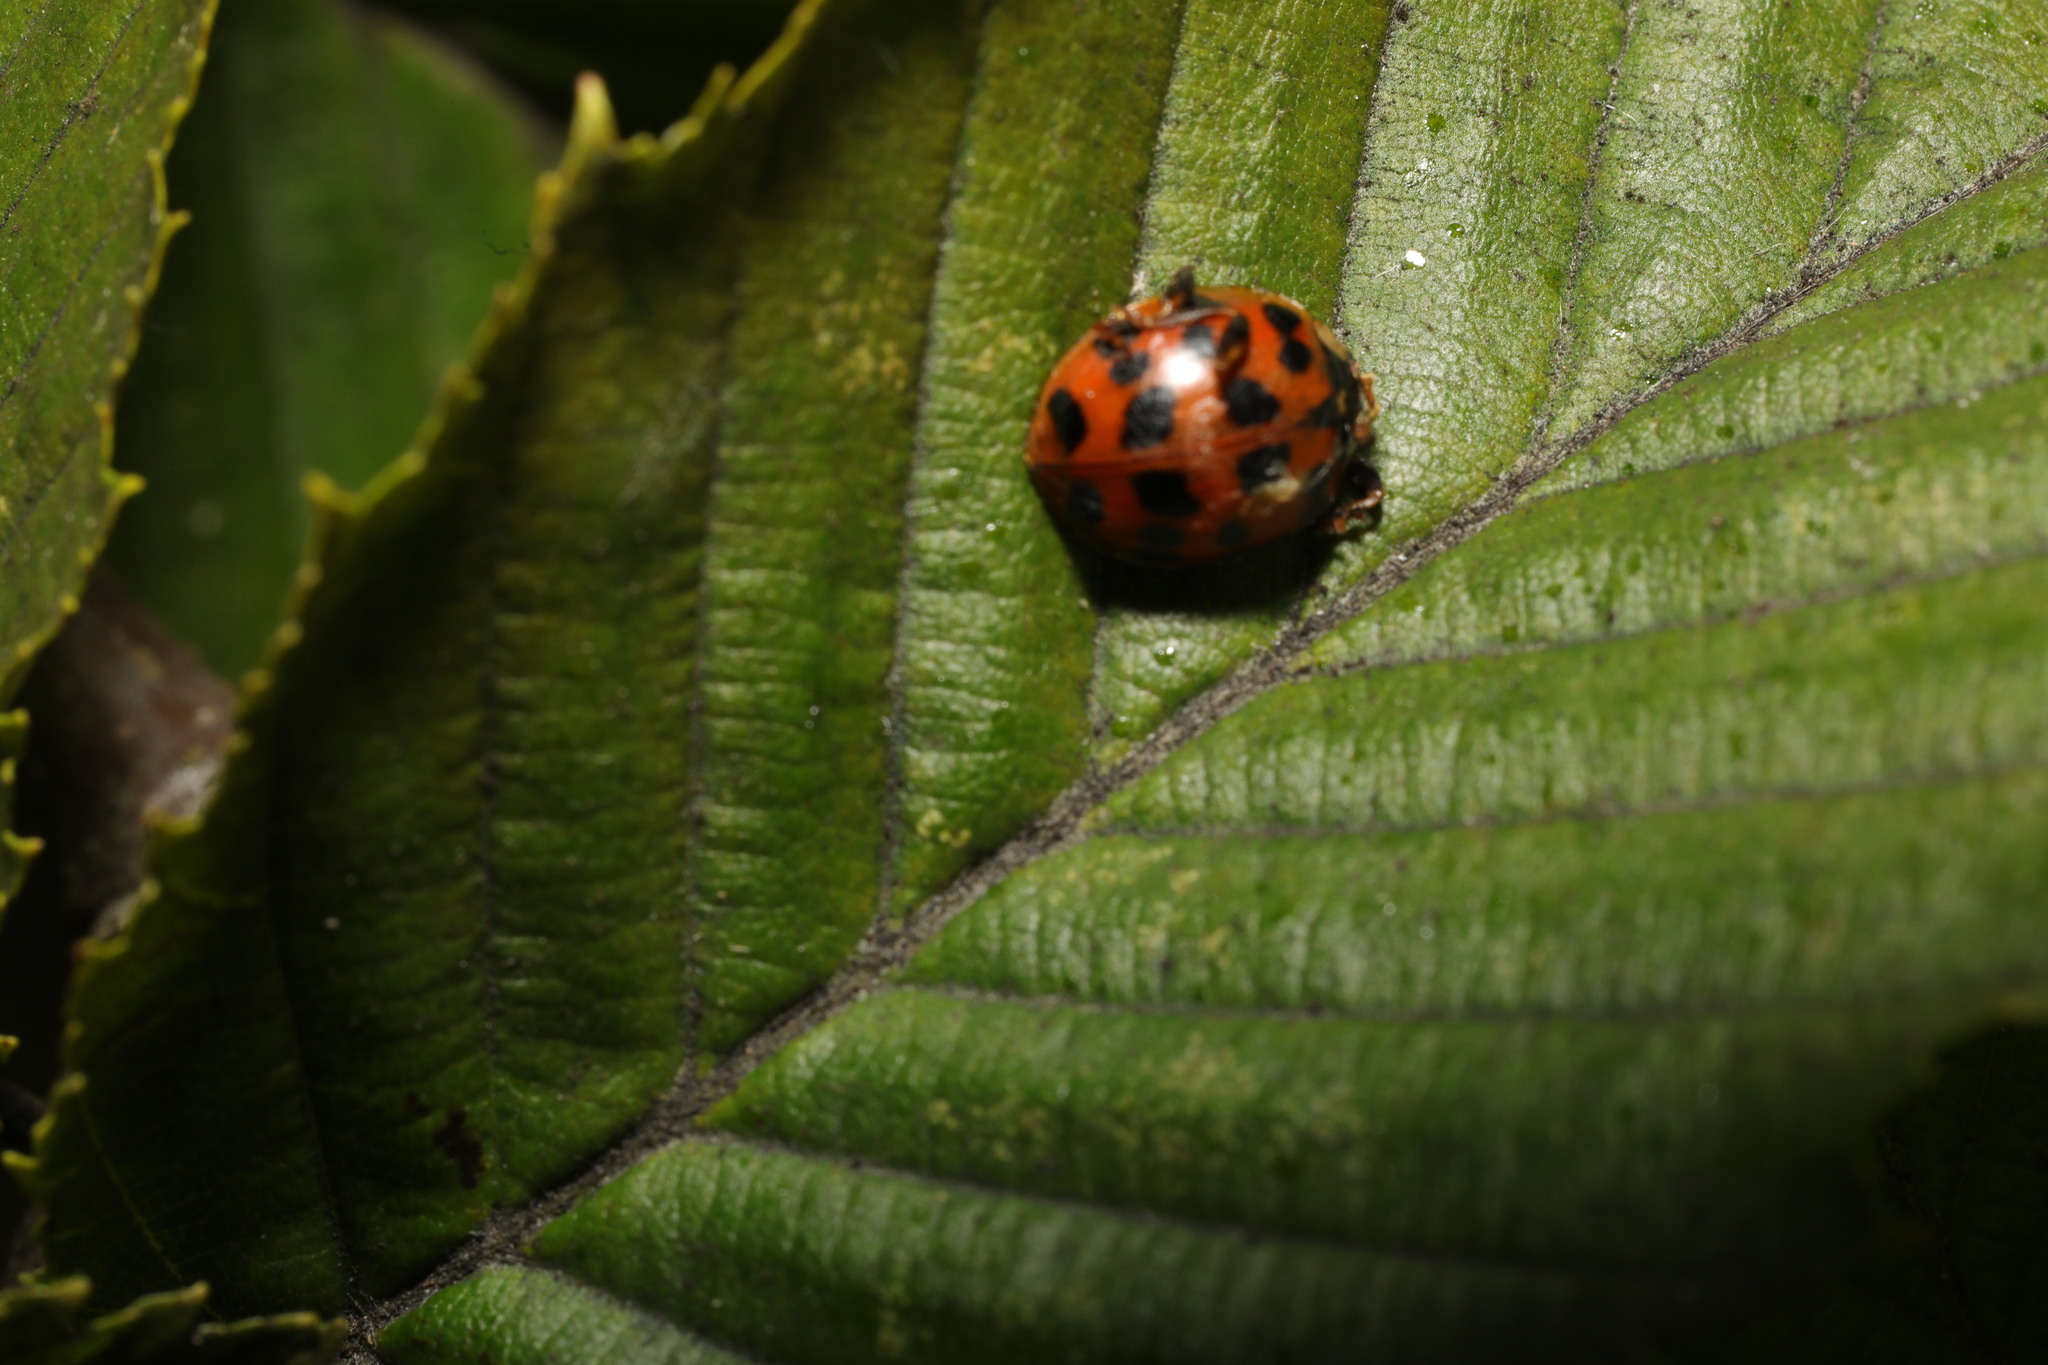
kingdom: Animalia
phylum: Arthropoda
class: Insecta
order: Coleoptera
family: Coccinellidae
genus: Harmonia
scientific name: Harmonia axyridis
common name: Harlequin ladybird
